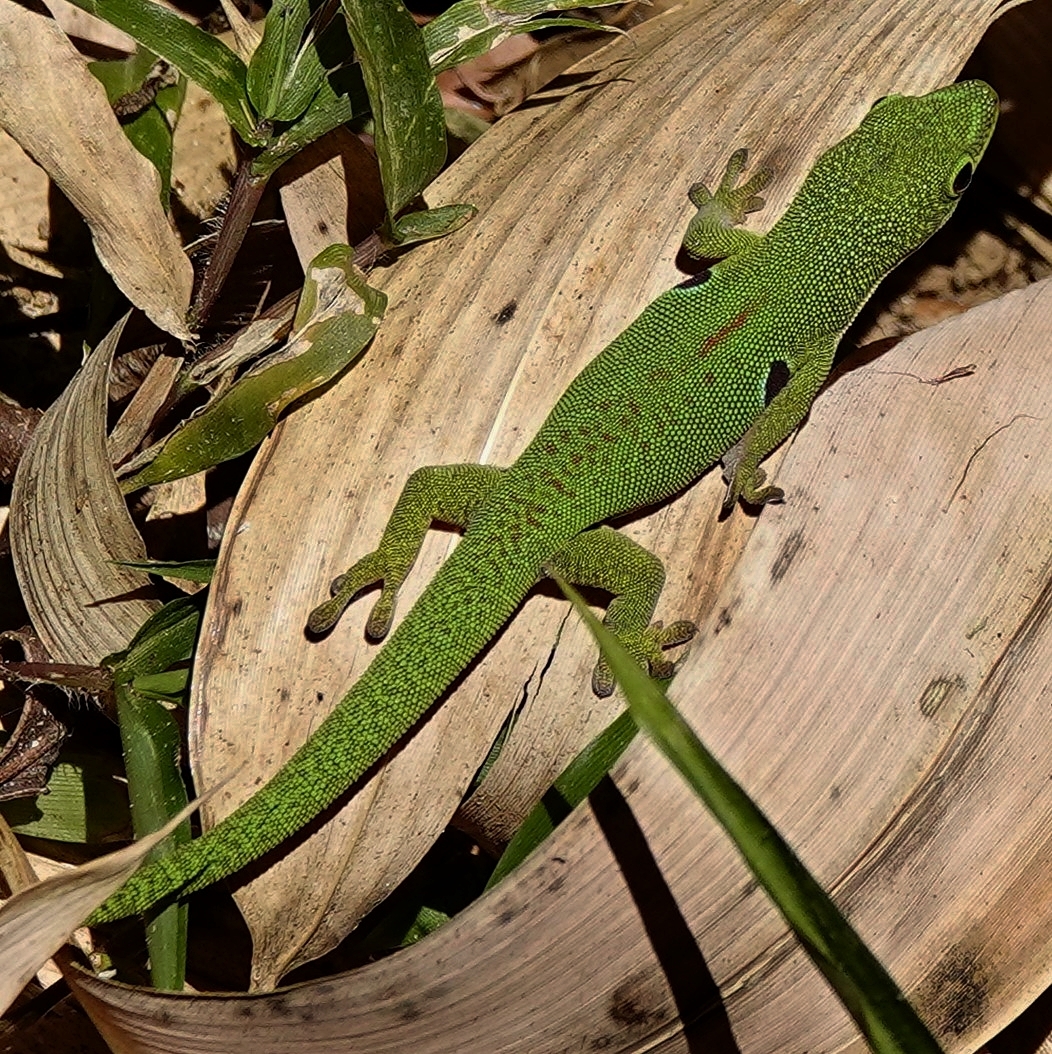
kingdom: Animalia
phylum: Chordata
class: Squamata
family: Gekkonidae
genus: Phelsuma
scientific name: Phelsuma quadriocellata
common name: Peacock day gecko
